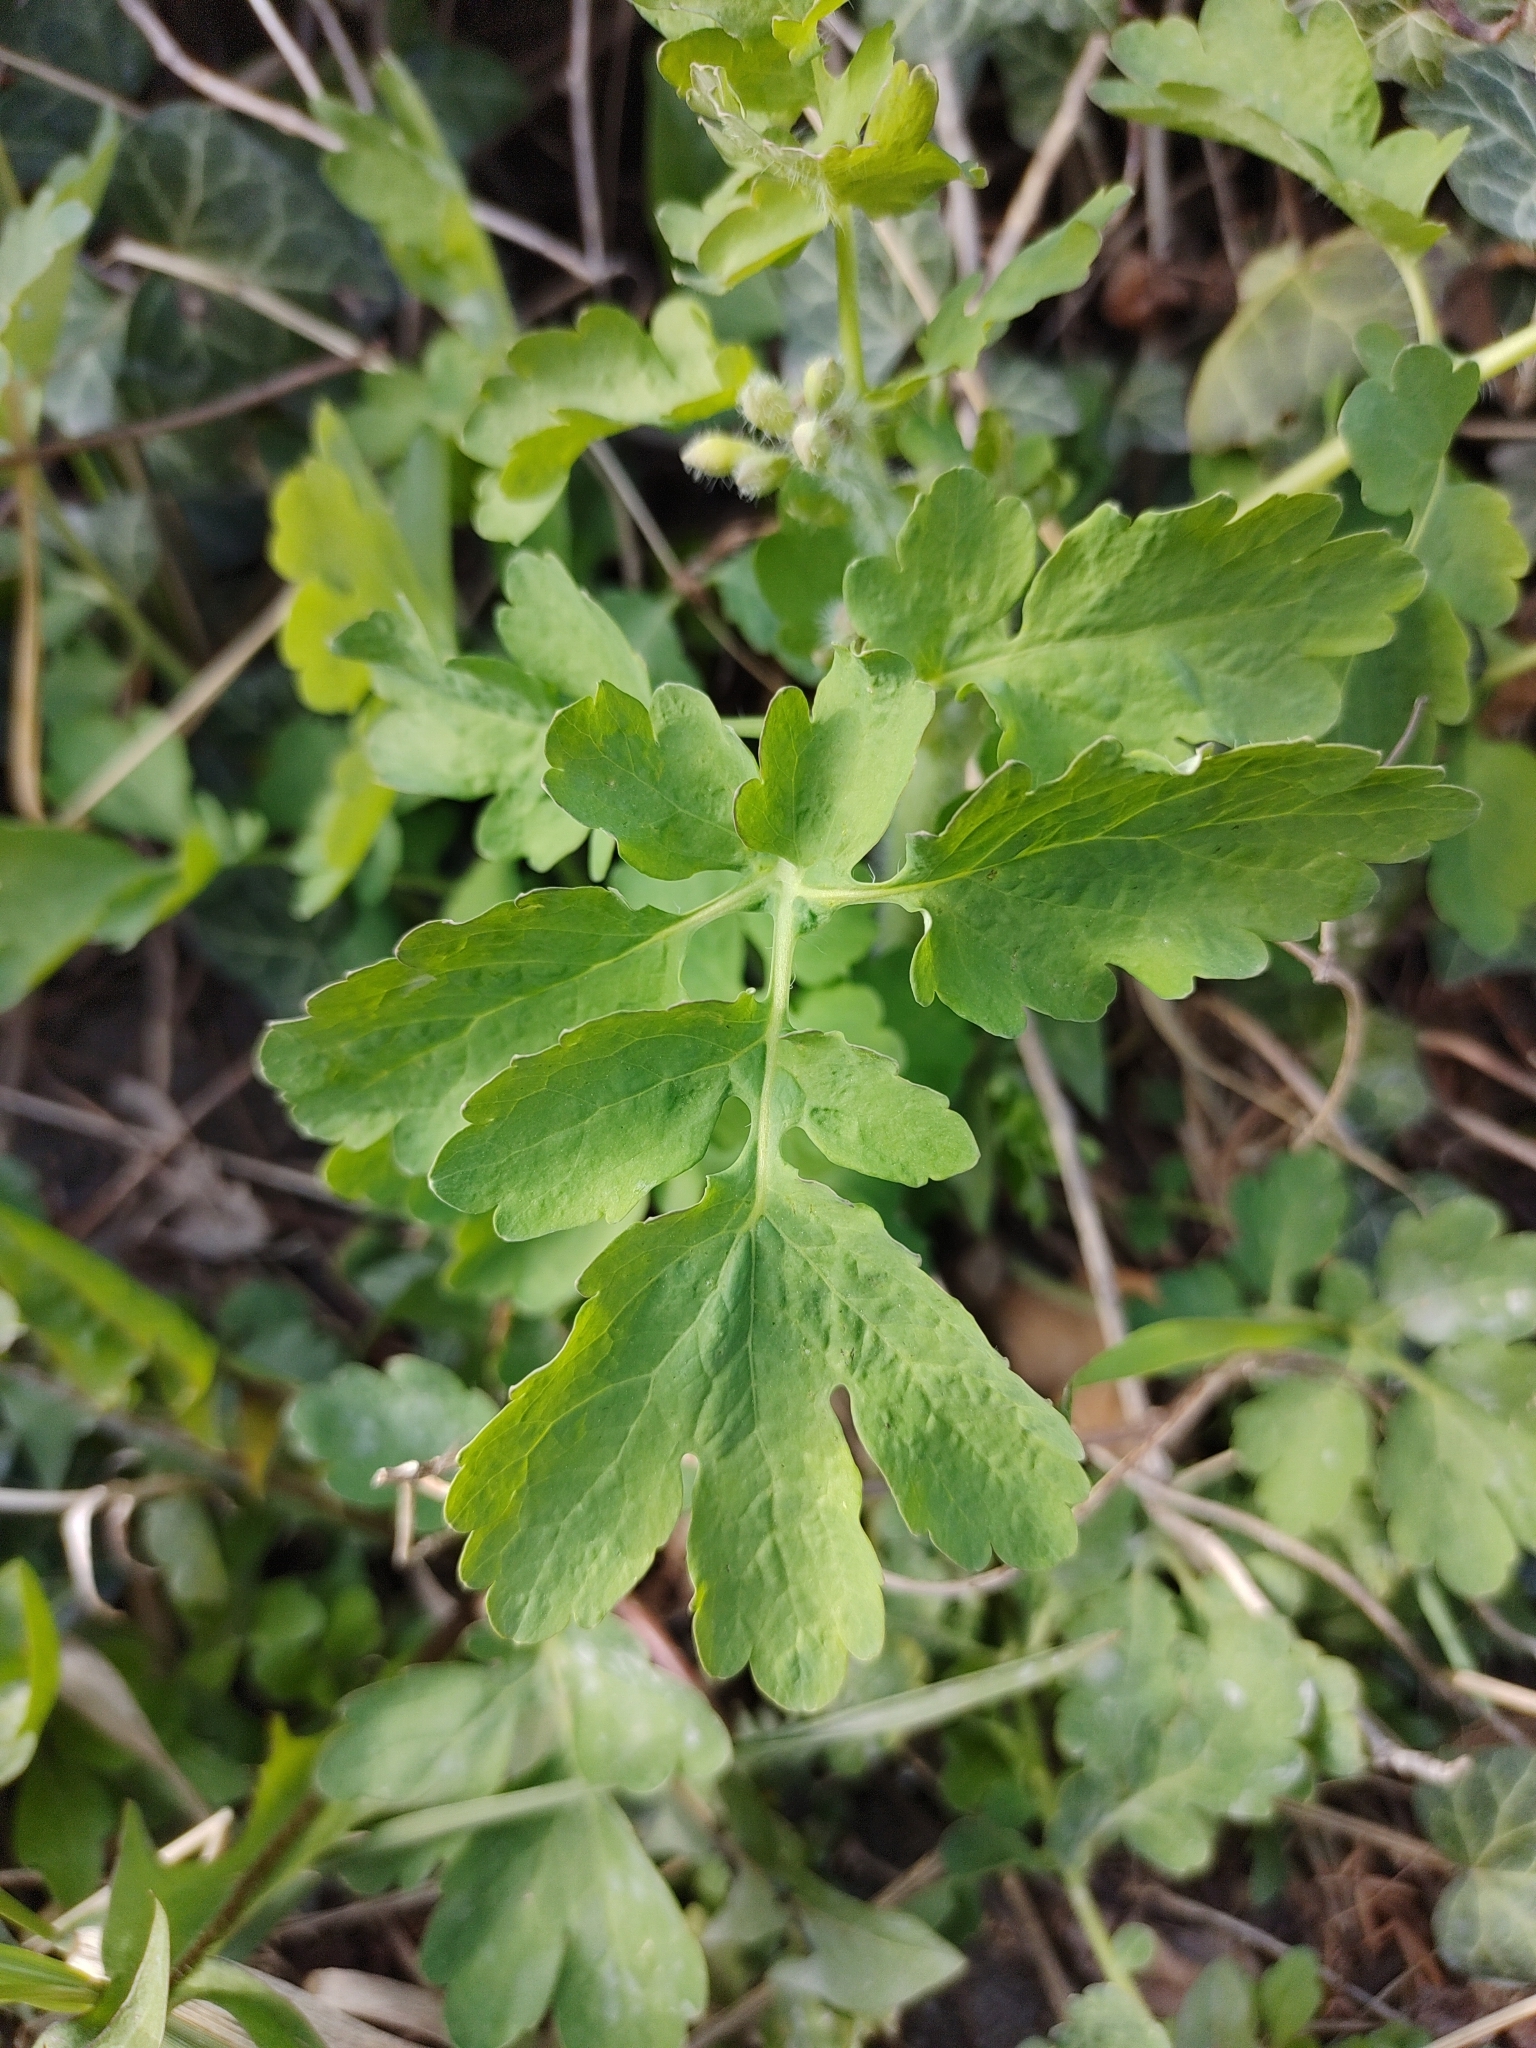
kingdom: Plantae
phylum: Tracheophyta
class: Magnoliopsida
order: Ranunculales
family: Papaveraceae
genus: Chelidonium
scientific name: Chelidonium majus
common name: Greater celandine
